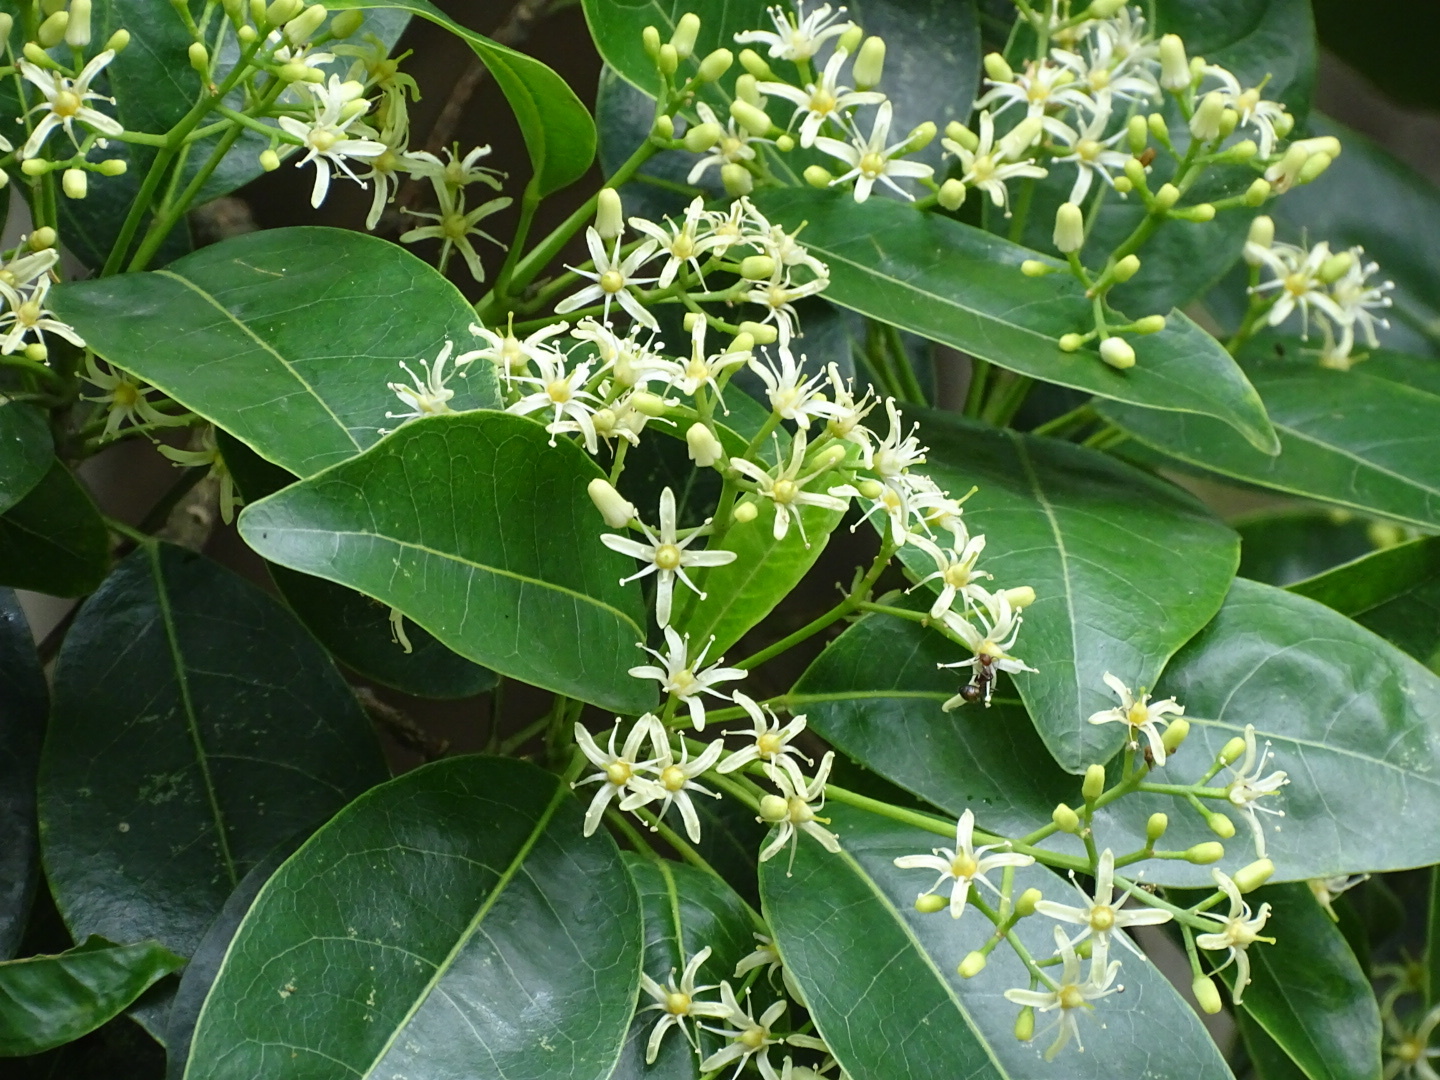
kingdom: Plantae
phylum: Tracheophyta
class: Magnoliopsida
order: Sapindales
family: Rutaceae
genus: Acronychia
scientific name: Acronychia pedunculata
